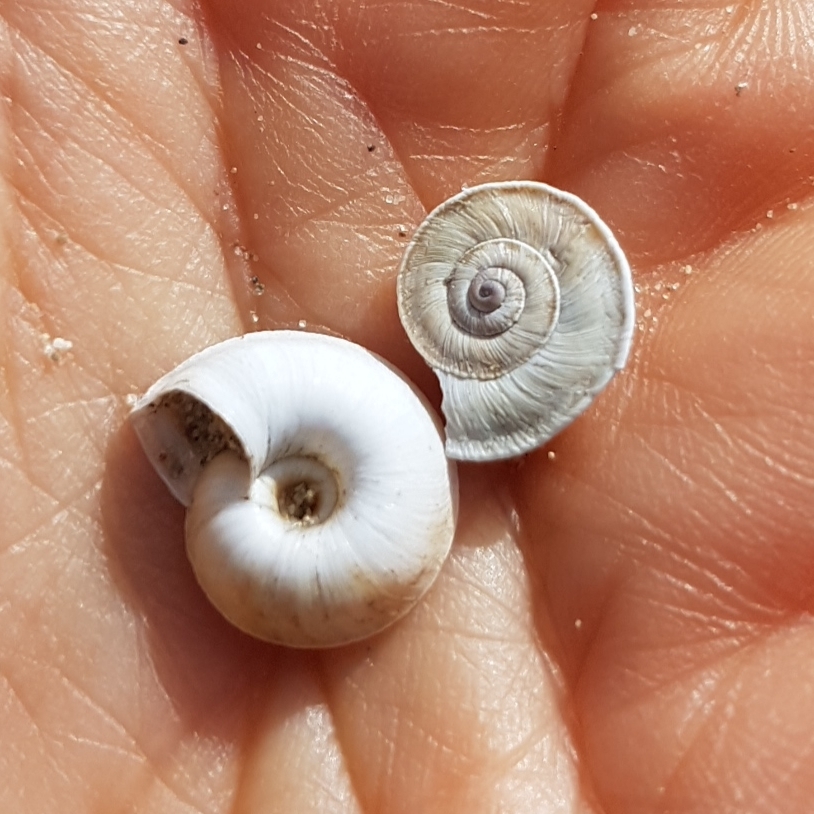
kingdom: Animalia
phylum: Mollusca
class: Gastropoda
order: Stylommatophora
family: Geomitridae
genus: Xerosecta
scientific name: Xerosecta explanata
